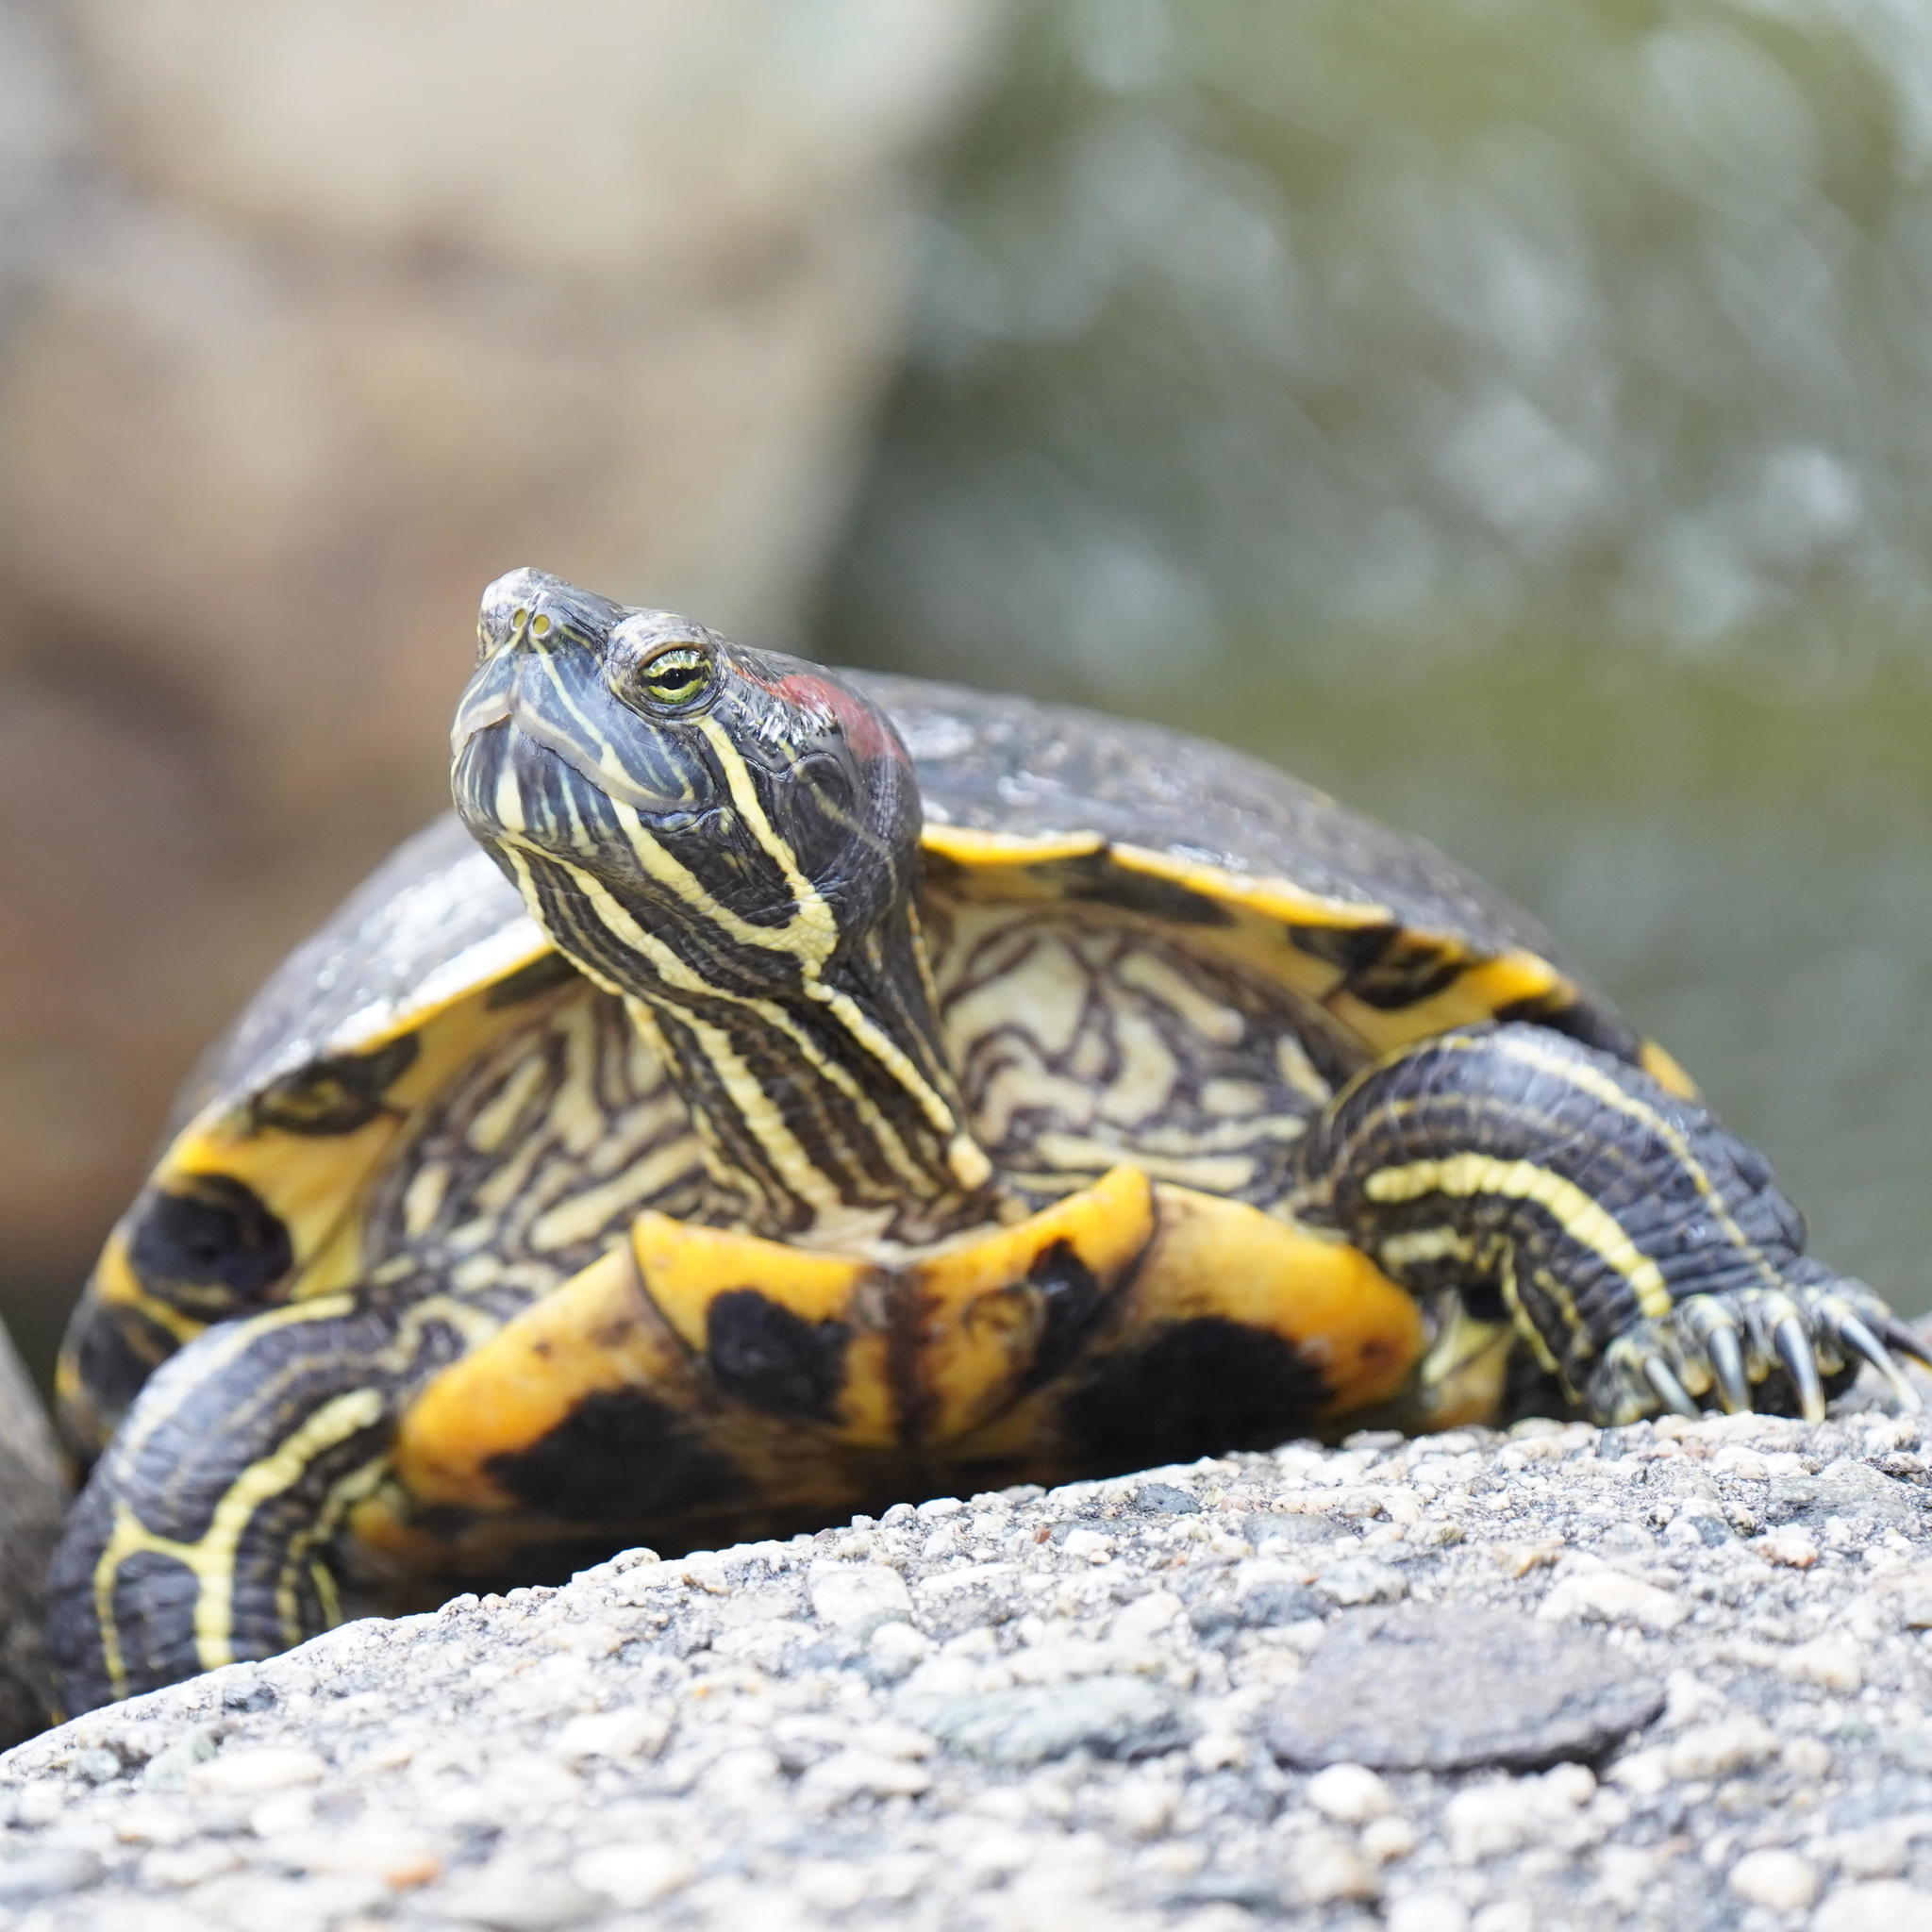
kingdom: Animalia
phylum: Chordata
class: Testudines
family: Emydidae
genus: Trachemys
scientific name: Trachemys scripta
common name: Slider
